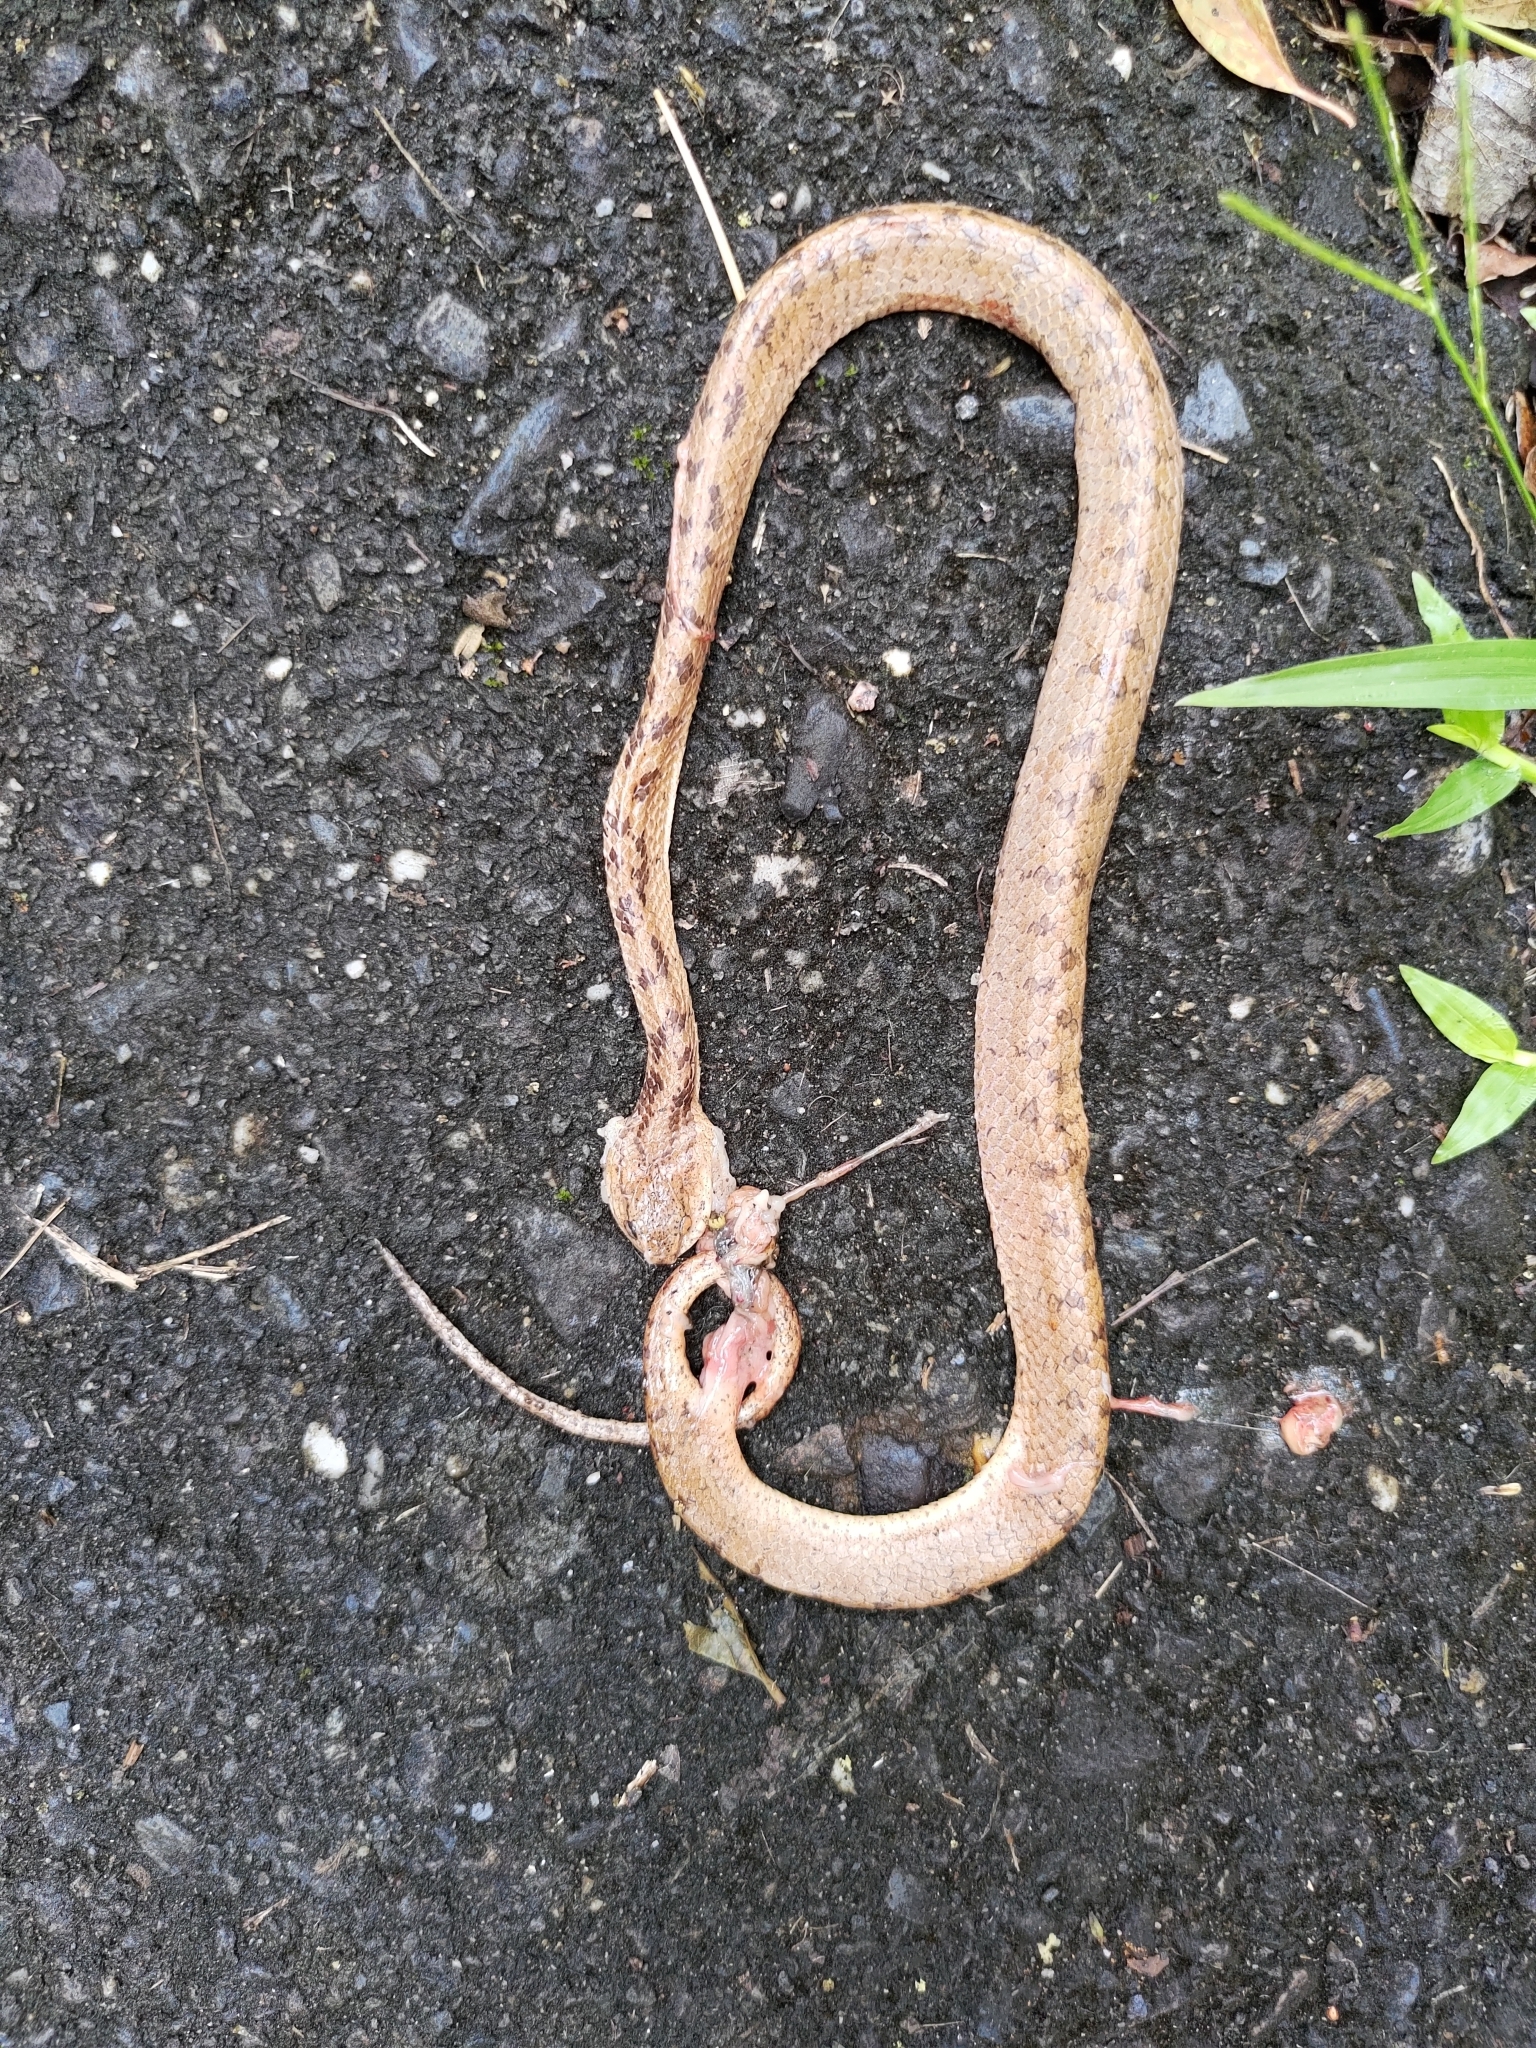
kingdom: Animalia
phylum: Chordata
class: Squamata
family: Pareidae
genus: Pareas
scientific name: Pareas komaii
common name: Formosa slug snake
